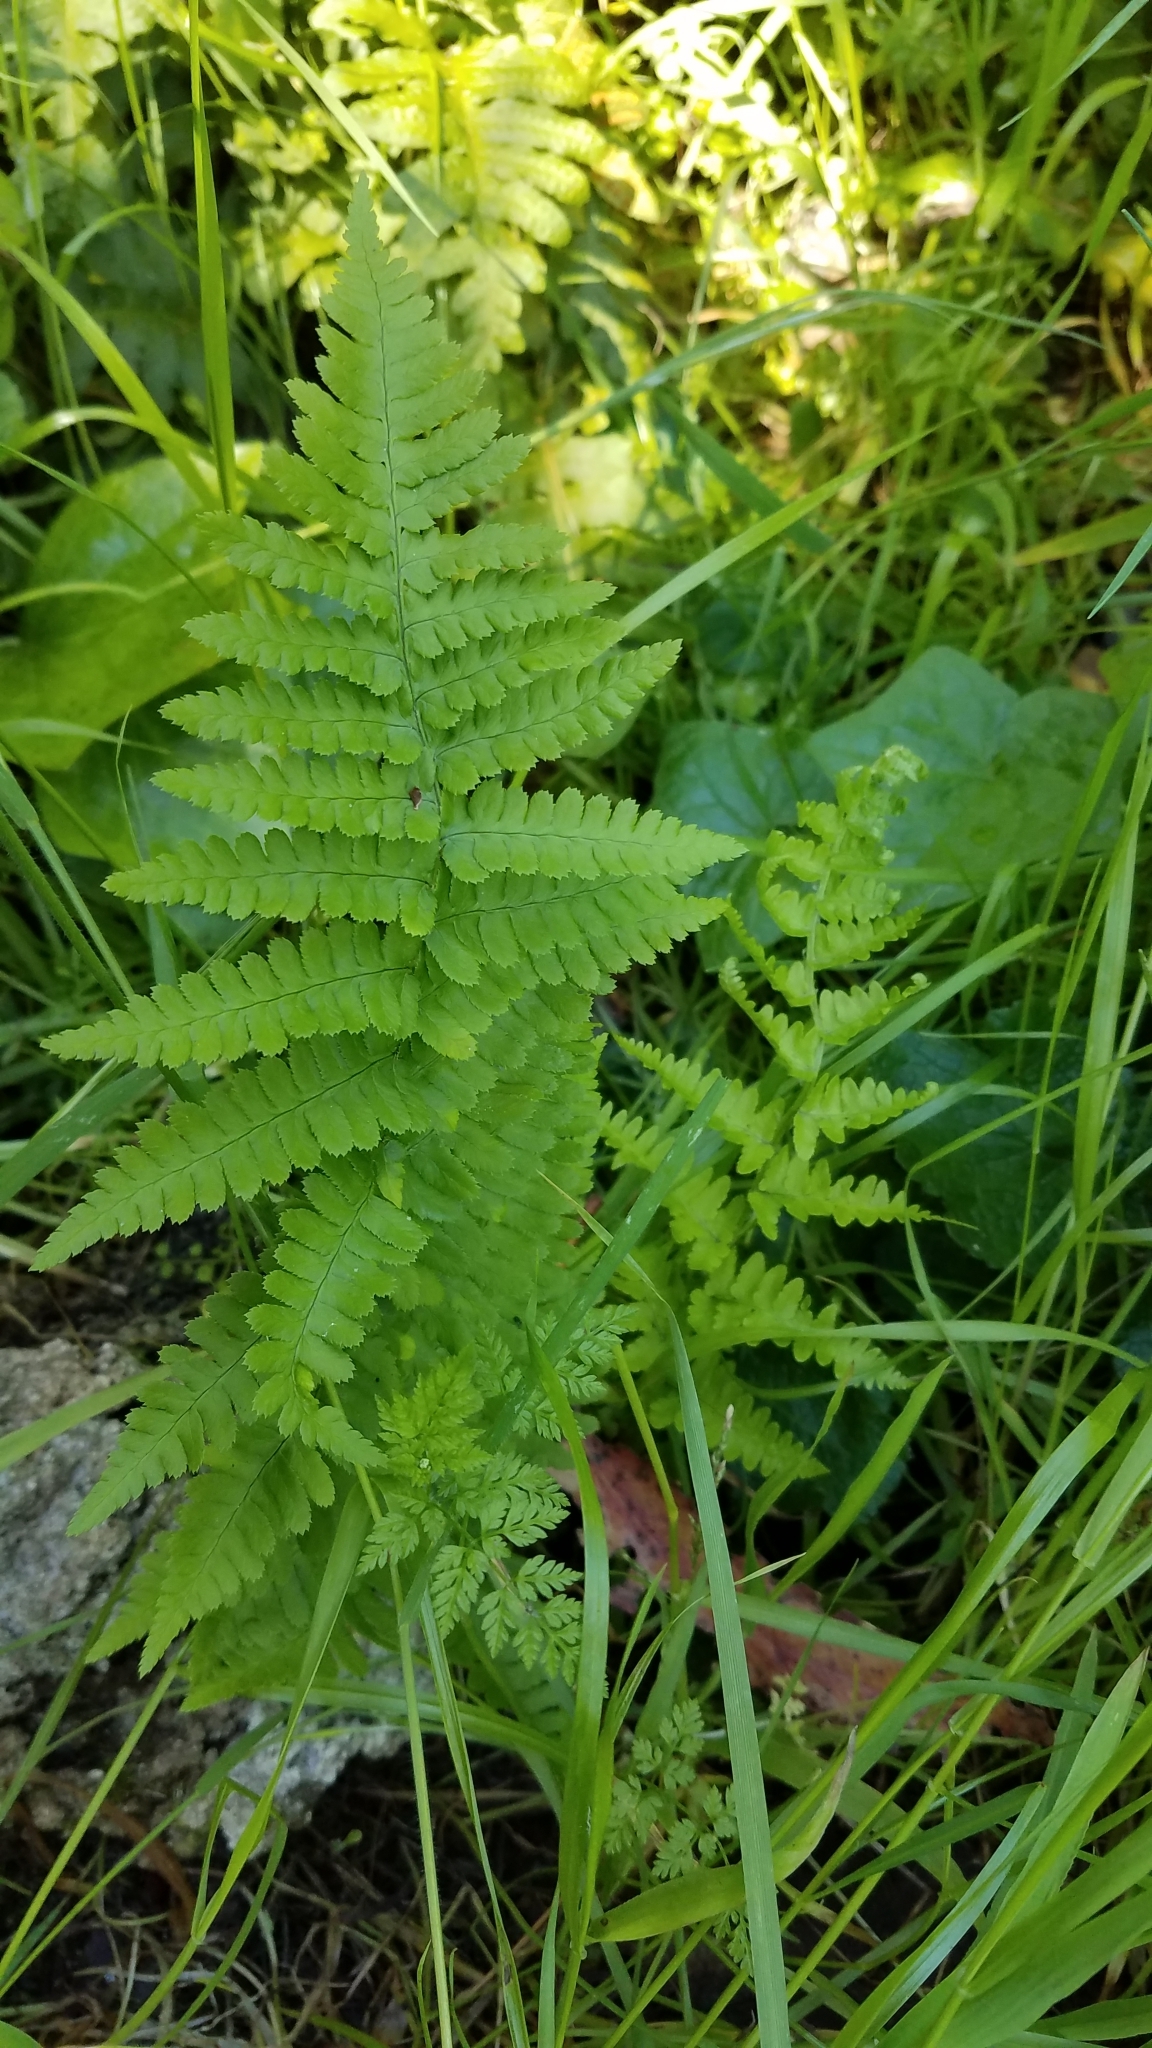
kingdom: Plantae
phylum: Tracheophyta
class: Polypodiopsida
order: Polypodiales
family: Dryopteridaceae
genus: Dryopteris
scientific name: Dryopteris arguta
